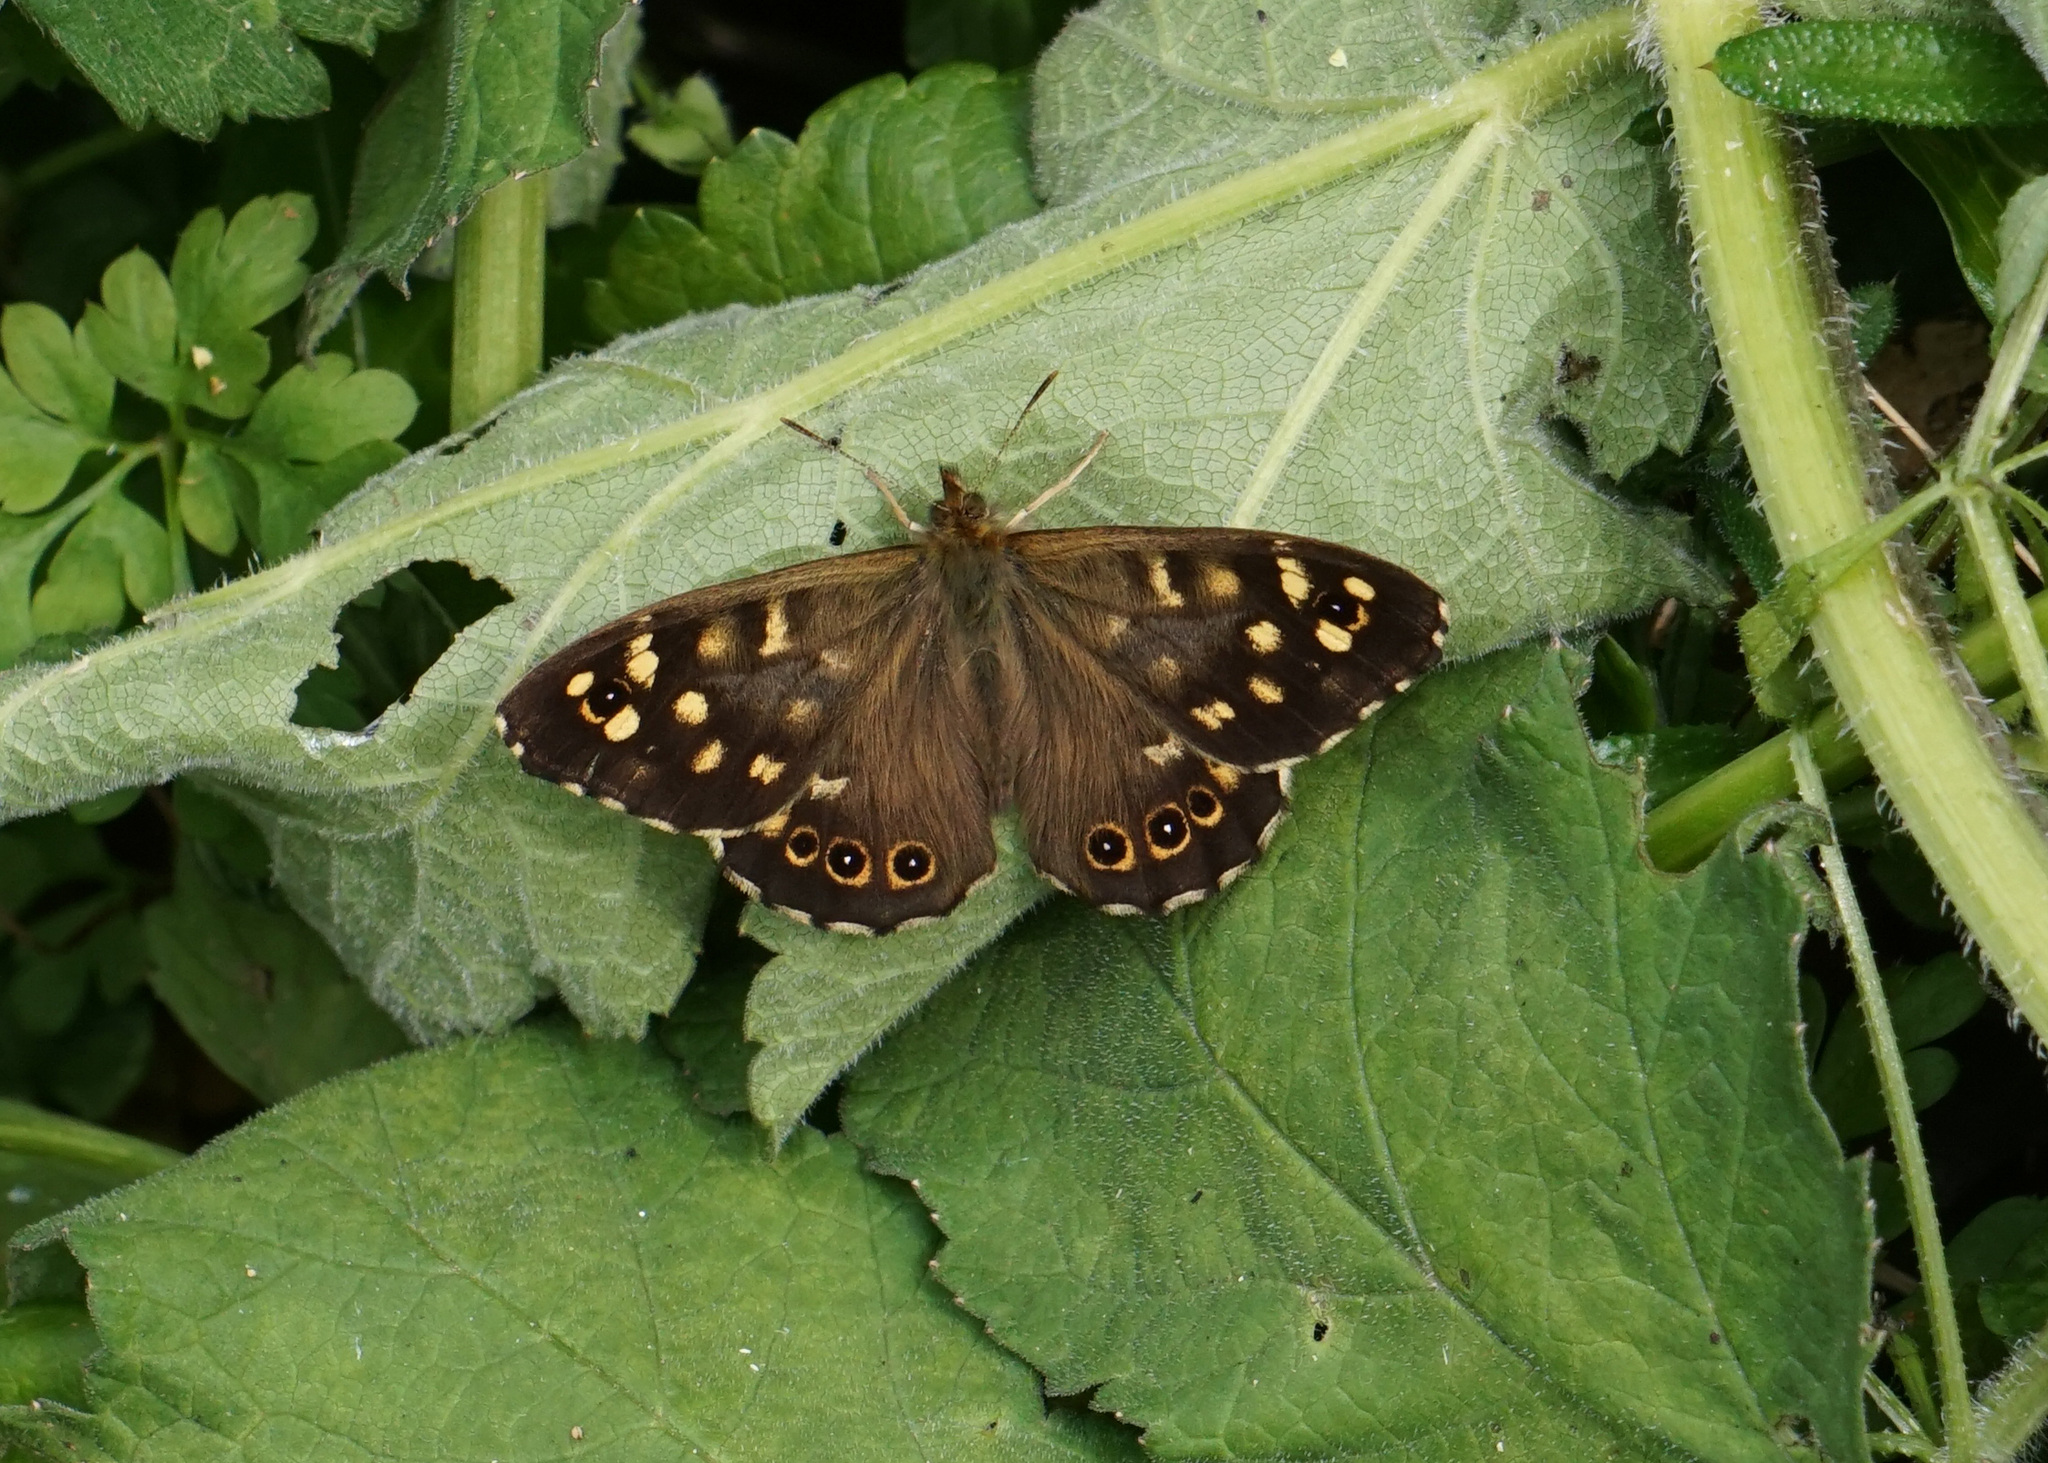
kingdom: Animalia
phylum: Arthropoda
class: Insecta
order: Lepidoptera
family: Nymphalidae
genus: Pararge
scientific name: Pararge aegeria
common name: Speckled wood
